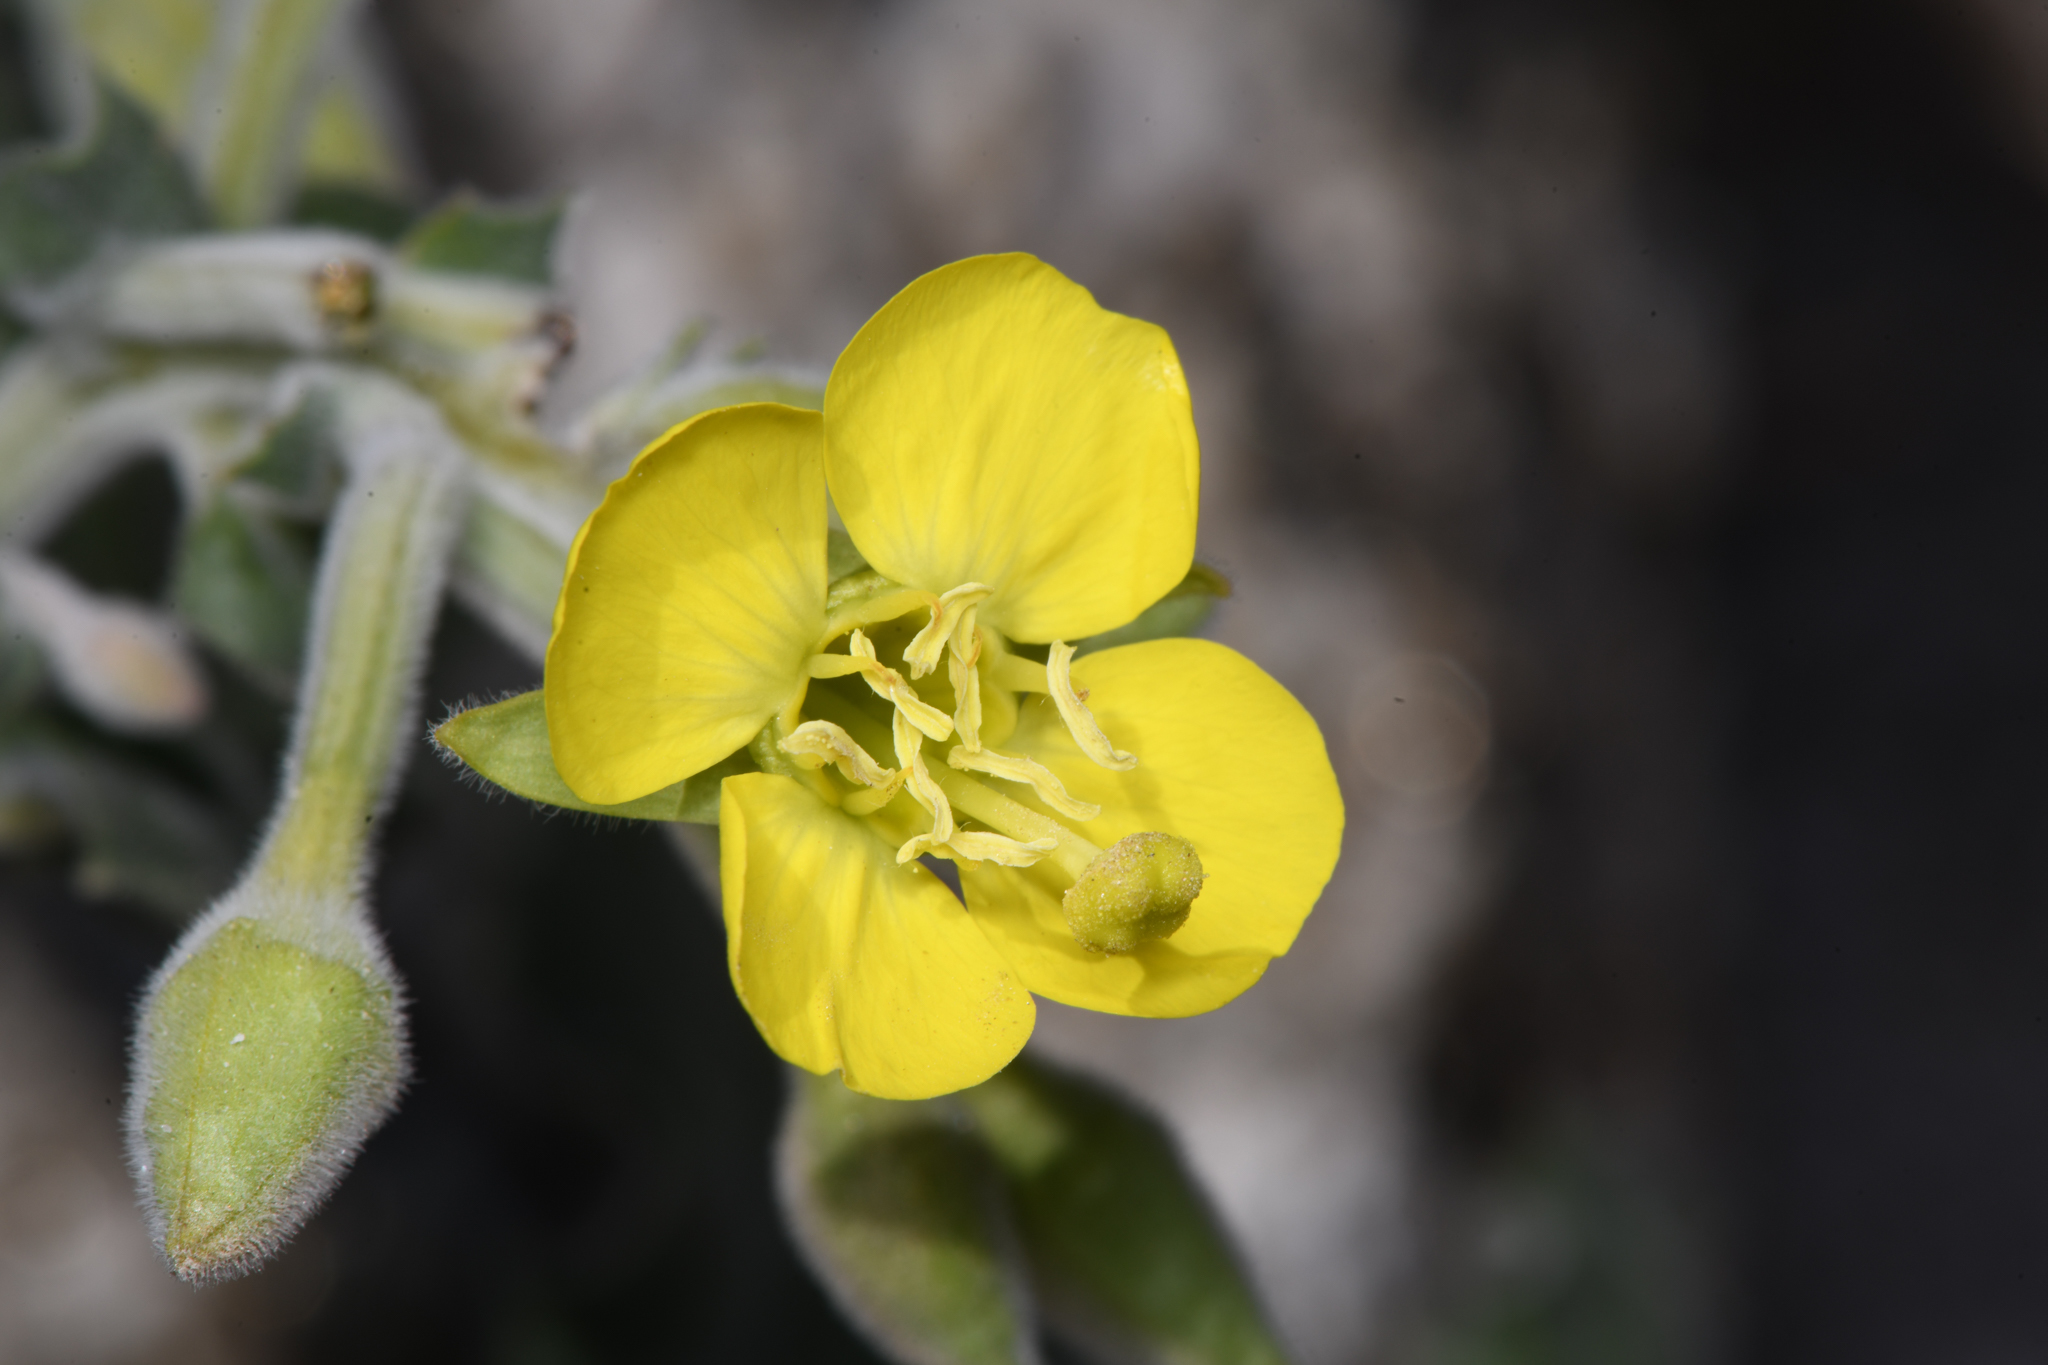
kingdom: Plantae
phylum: Tracheophyta
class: Magnoliopsida
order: Myrtales
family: Onagraceae
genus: Chylismia
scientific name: Chylismia cardiophylla
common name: Heartleaf suncup
